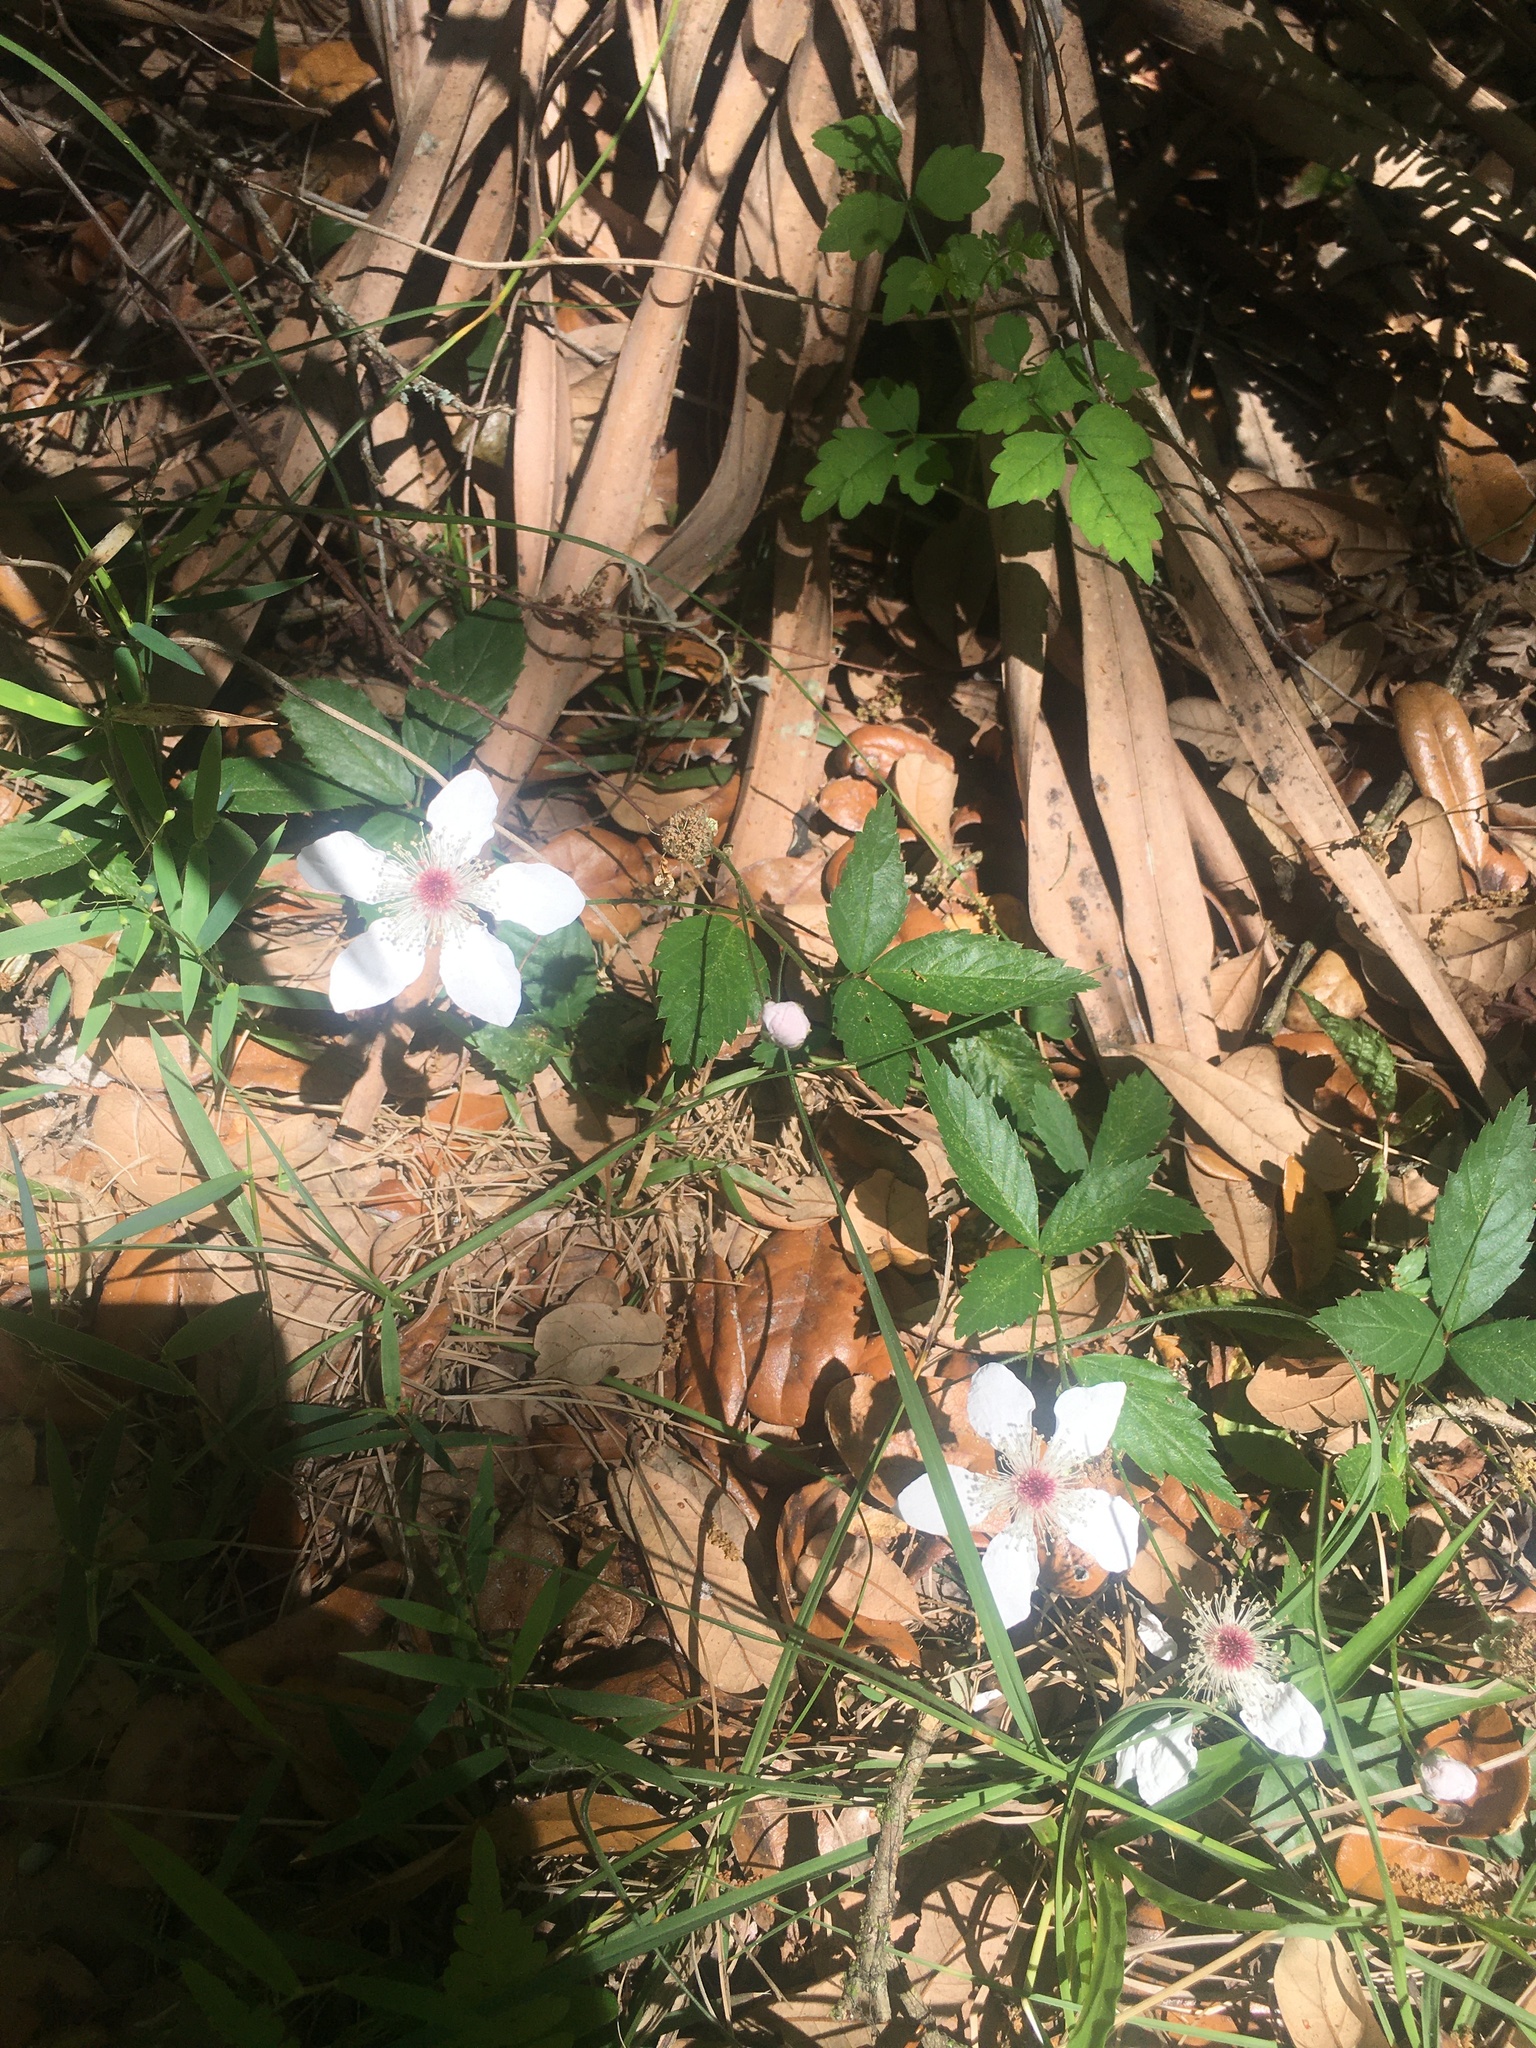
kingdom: Plantae
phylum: Tracheophyta
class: Magnoliopsida
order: Rosales
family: Rosaceae
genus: Rubus
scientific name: Rubus trivialis
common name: Southern dewberry
